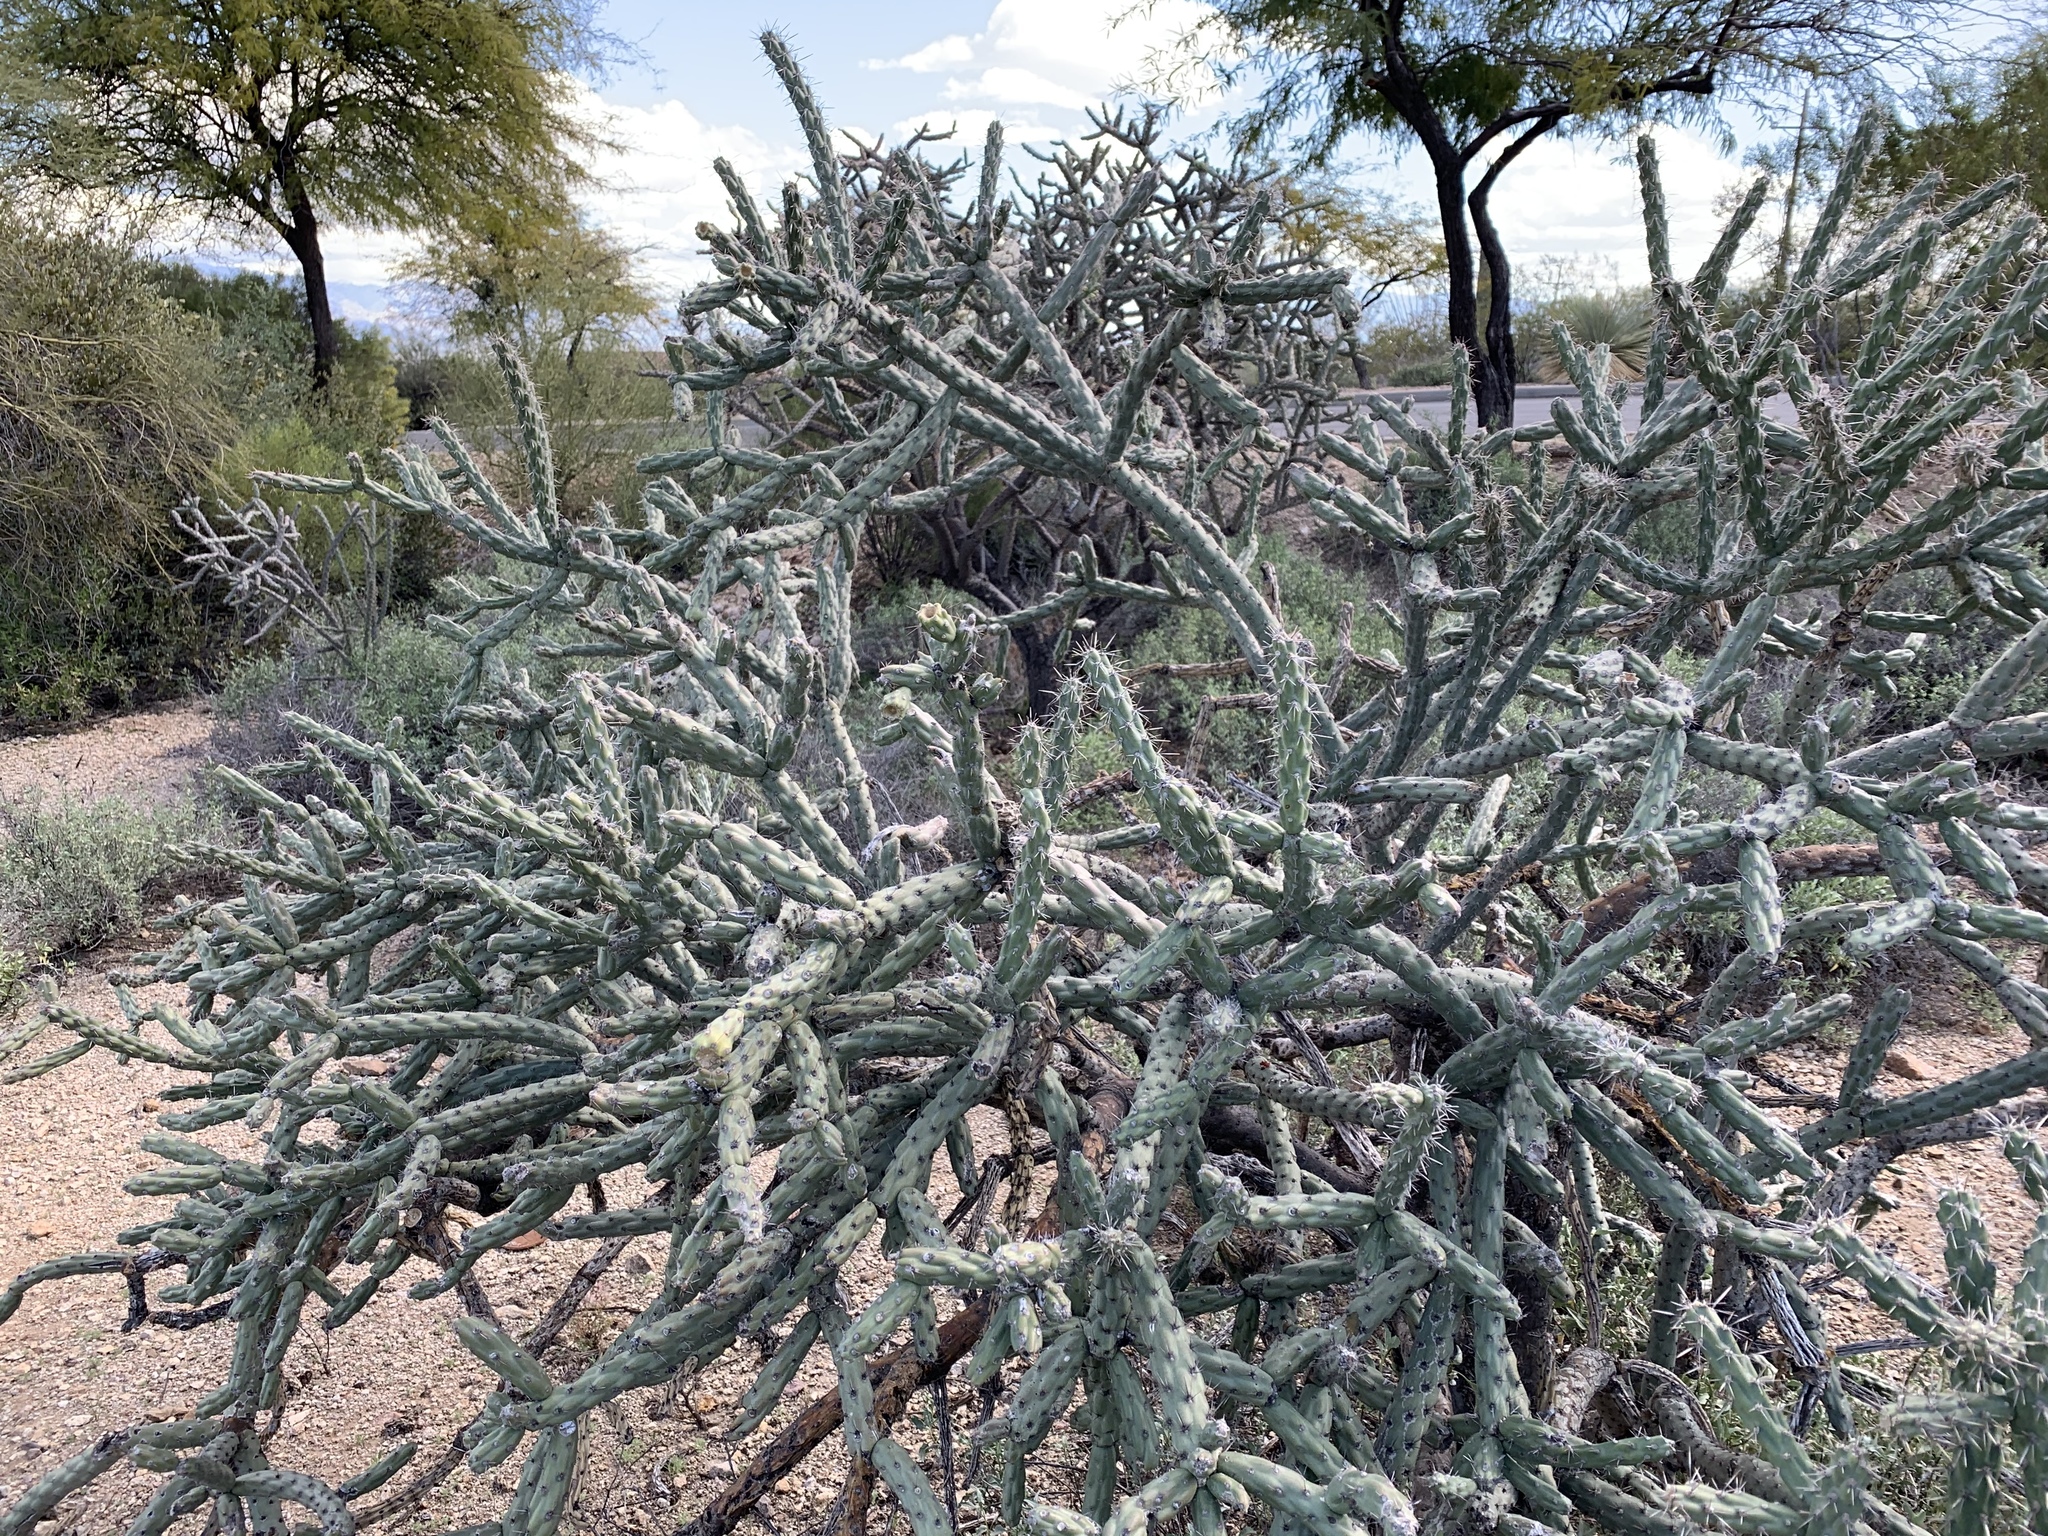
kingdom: Plantae
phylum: Tracheophyta
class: Magnoliopsida
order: Caryophyllales
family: Cactaceae
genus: Cylindropuntia
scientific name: Cylindropuntia thurberi
